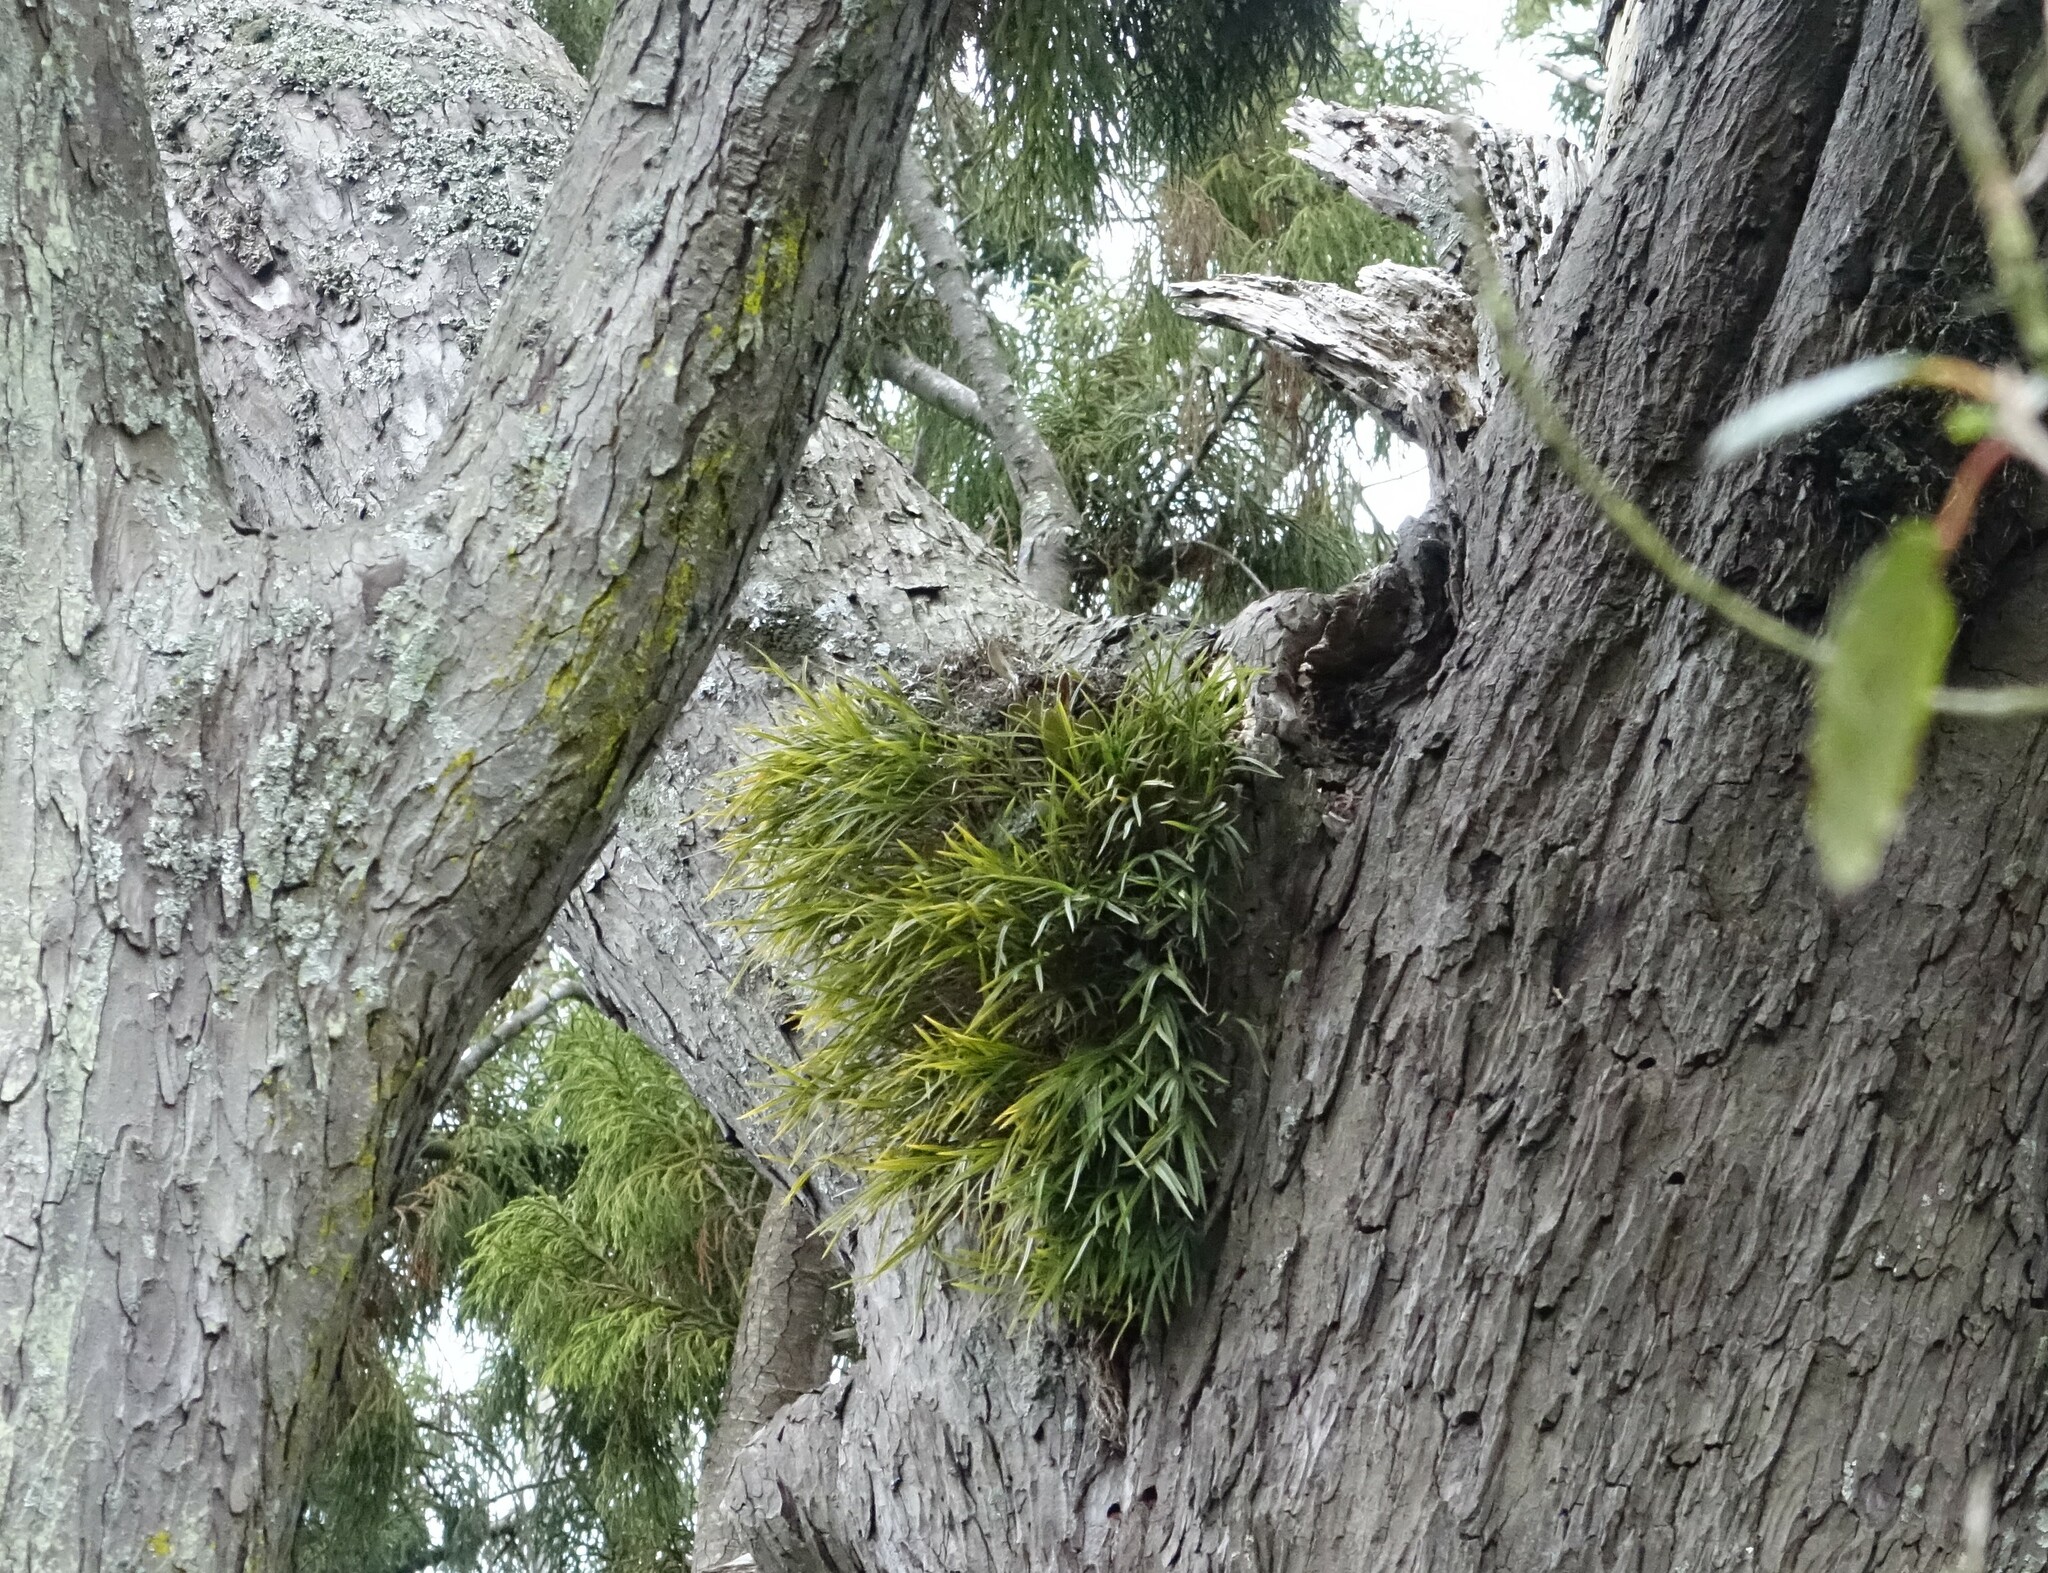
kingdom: Plantae
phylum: Tracheophyta
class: Liliopsida
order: Asparagales
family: Orchidaceae
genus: Earina
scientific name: Earina mucronata
